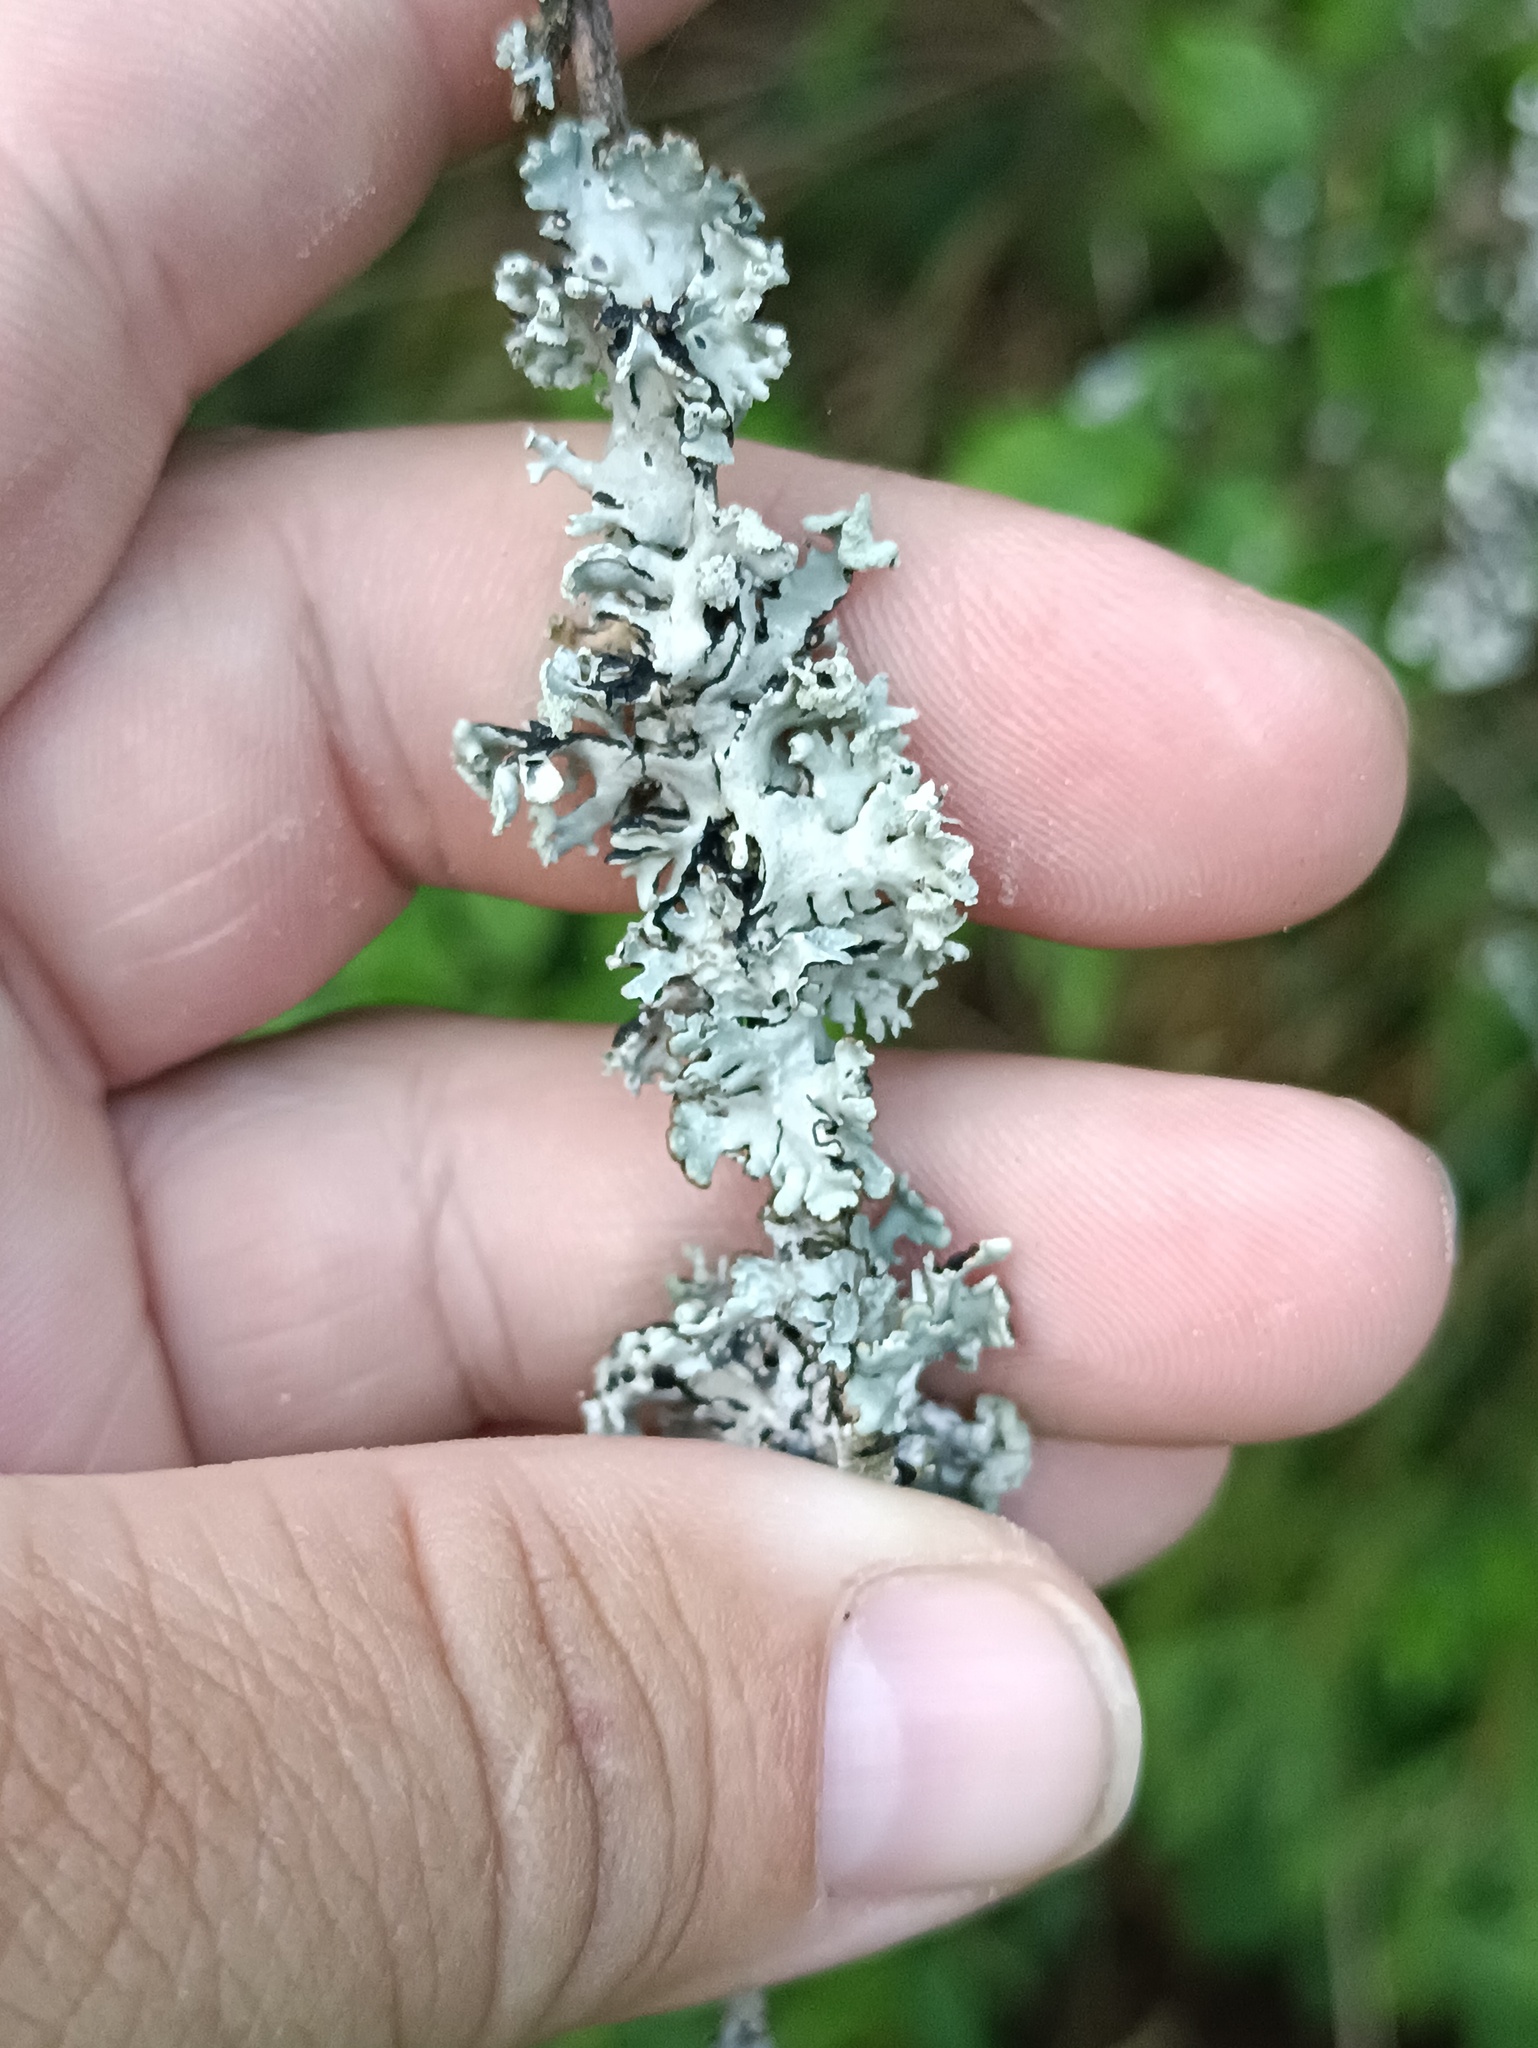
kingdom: Fungi
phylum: Ascomycota
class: Lecanoromycetes
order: Lecanorales
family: Parmeliaceae
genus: Hypogymnia
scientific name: Hypogymnia physodes
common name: Dark crottle
